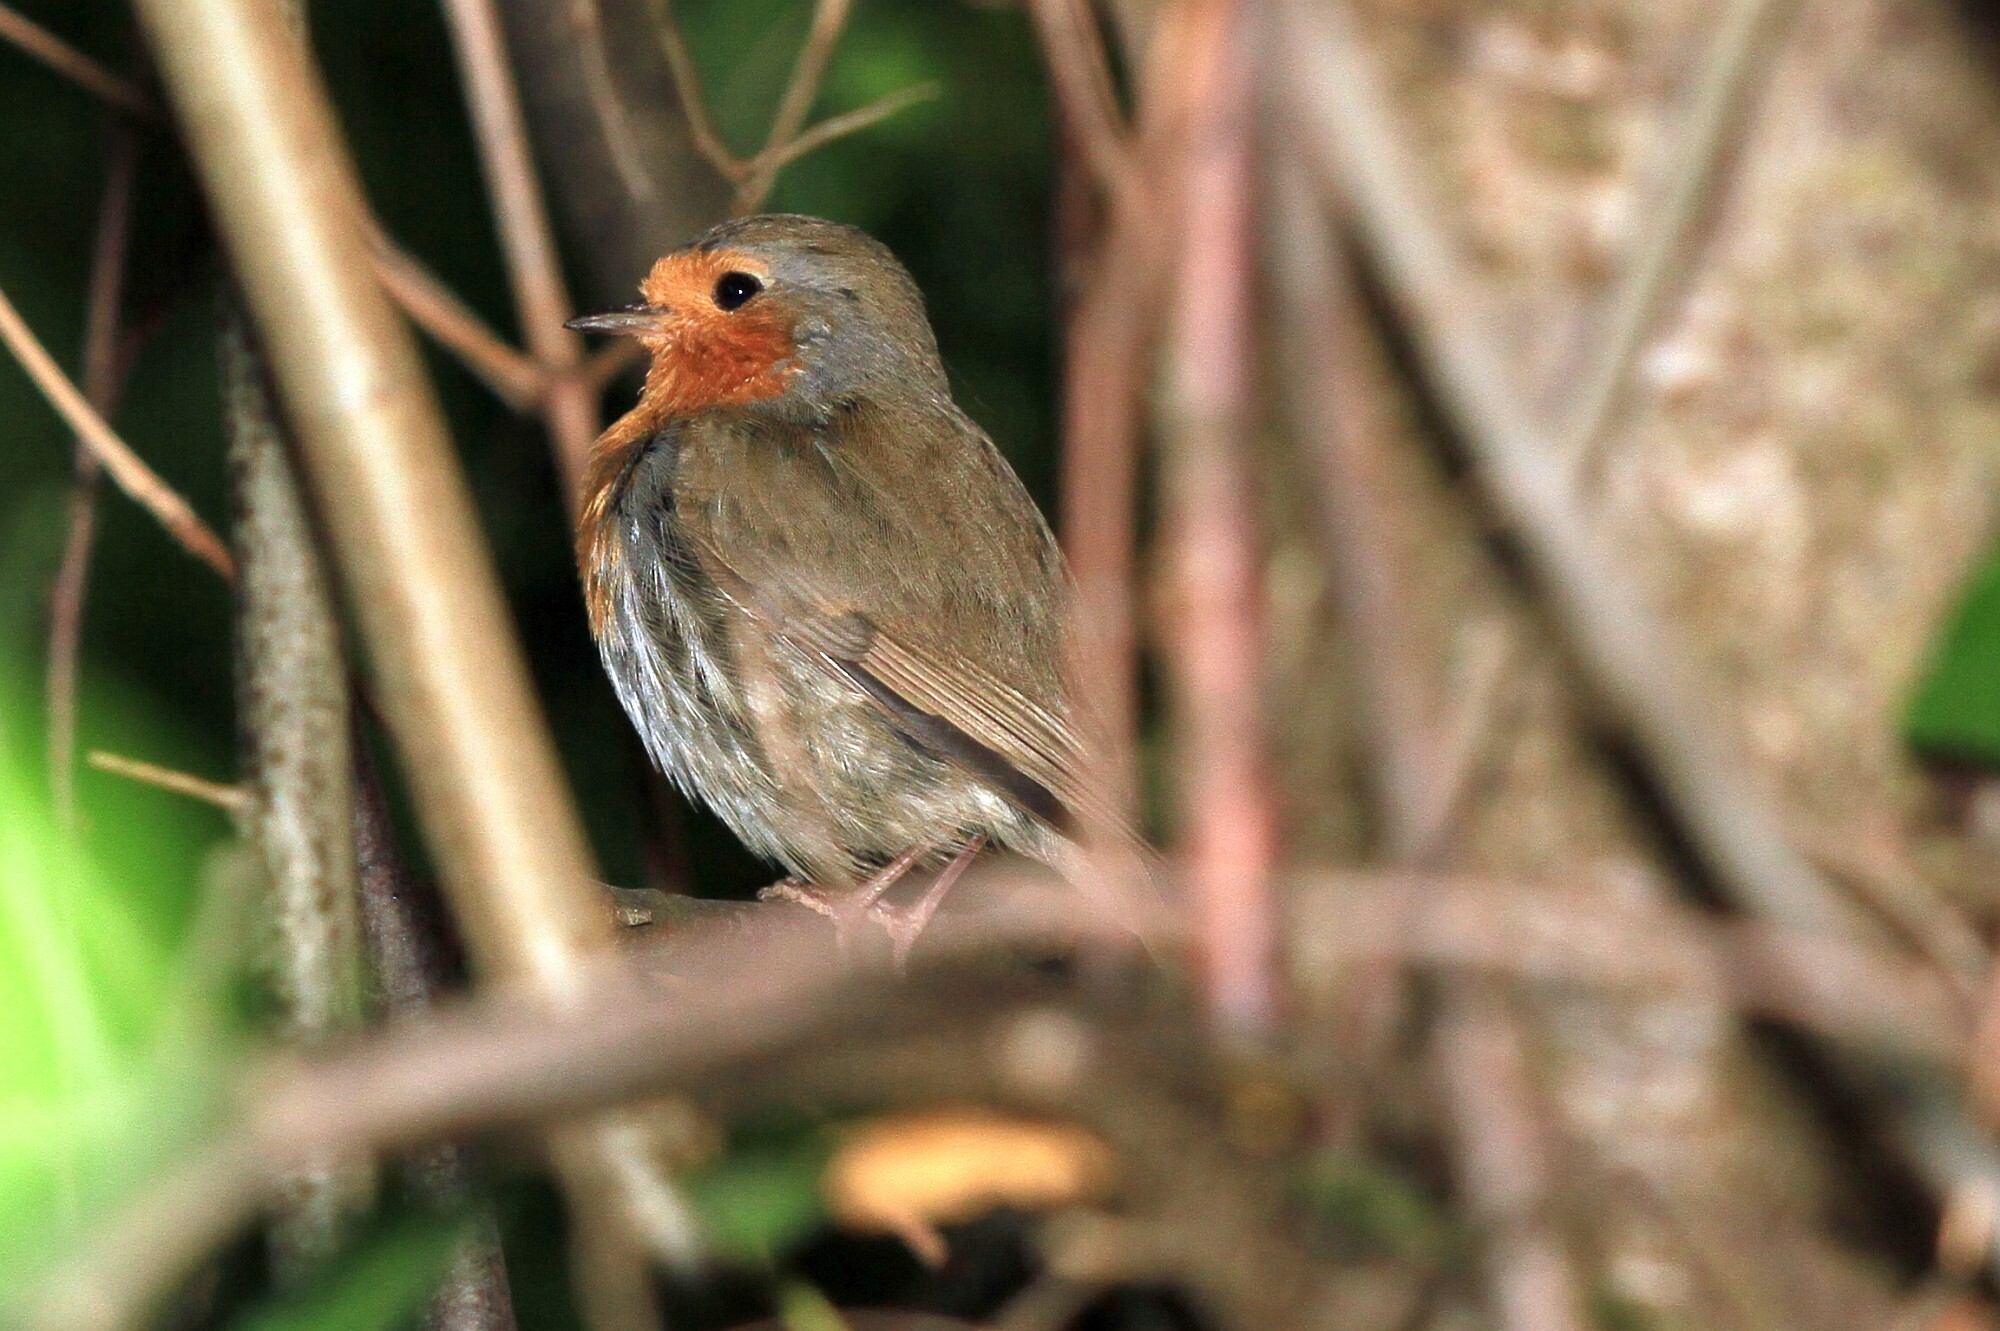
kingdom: Animalia
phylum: Chordata
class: Aves
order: Passeriformes
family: Muscicapidae
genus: Erithacus
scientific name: Erithacus rubecula
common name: European robin
